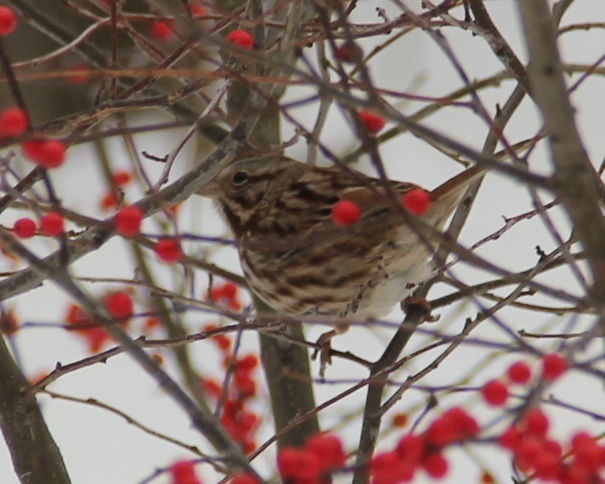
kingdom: Animalia
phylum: Chordata
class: Aves
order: Passeriformes
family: Passerellidae
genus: Melospiza
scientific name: Melospiza melodia
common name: Song sparrow
